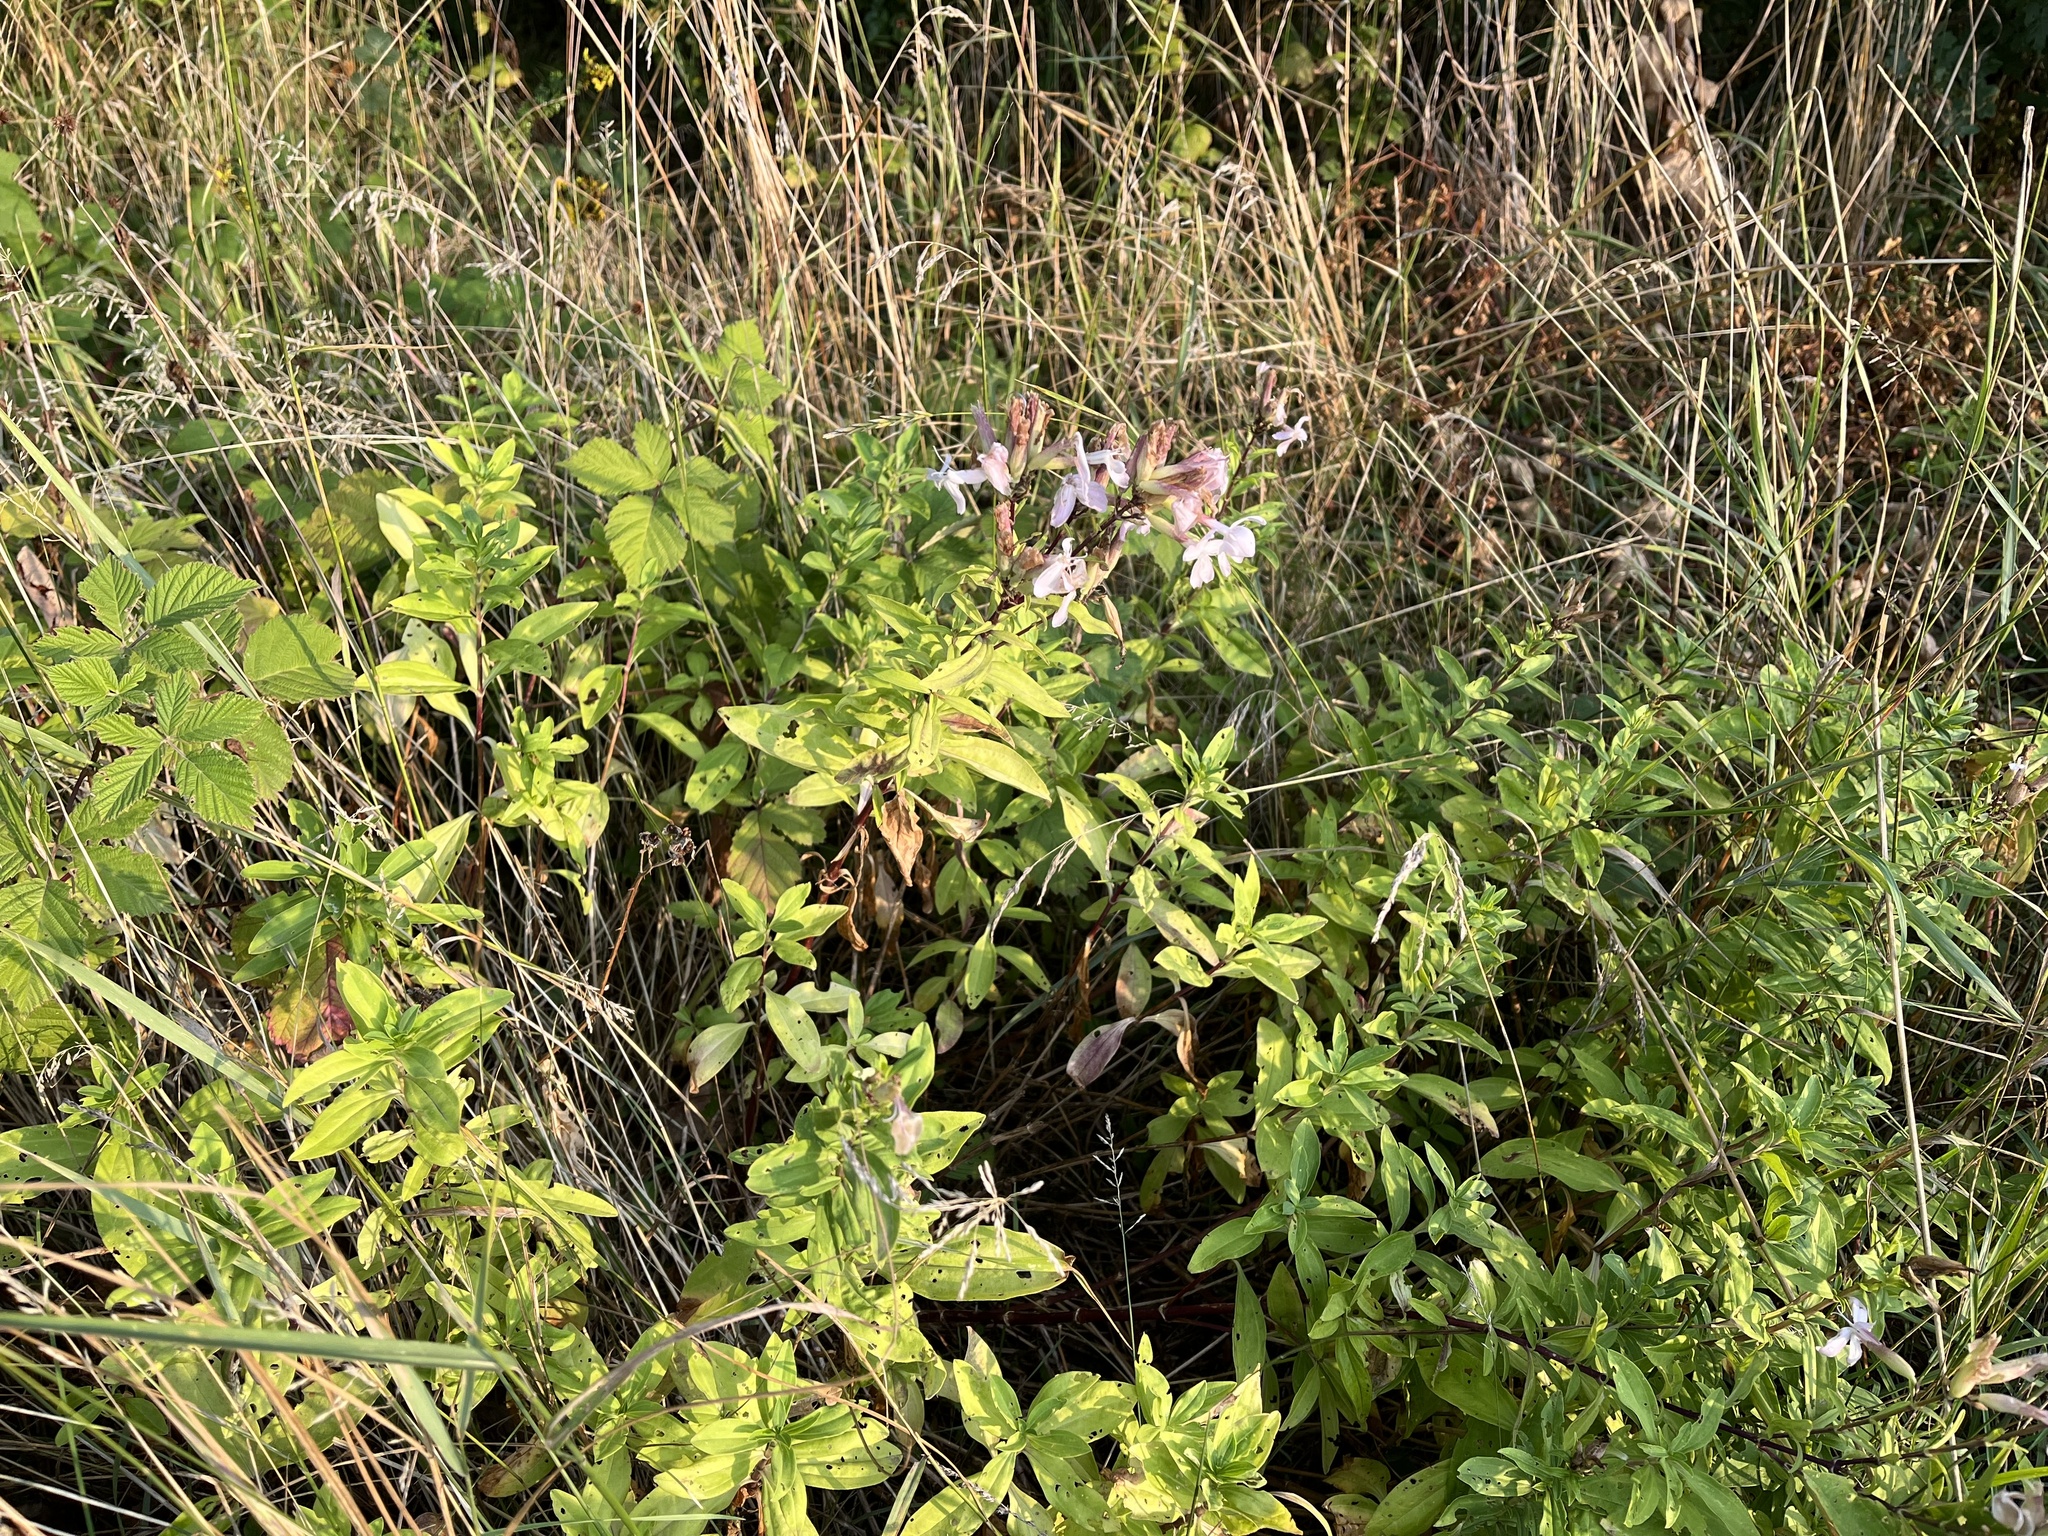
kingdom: Plantae
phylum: Tracheophyta
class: Magnoliopsida
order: Caryophyllales
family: Caryophyllaceae
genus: Saponaria
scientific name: Saponaria officinalis
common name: Soapwort
